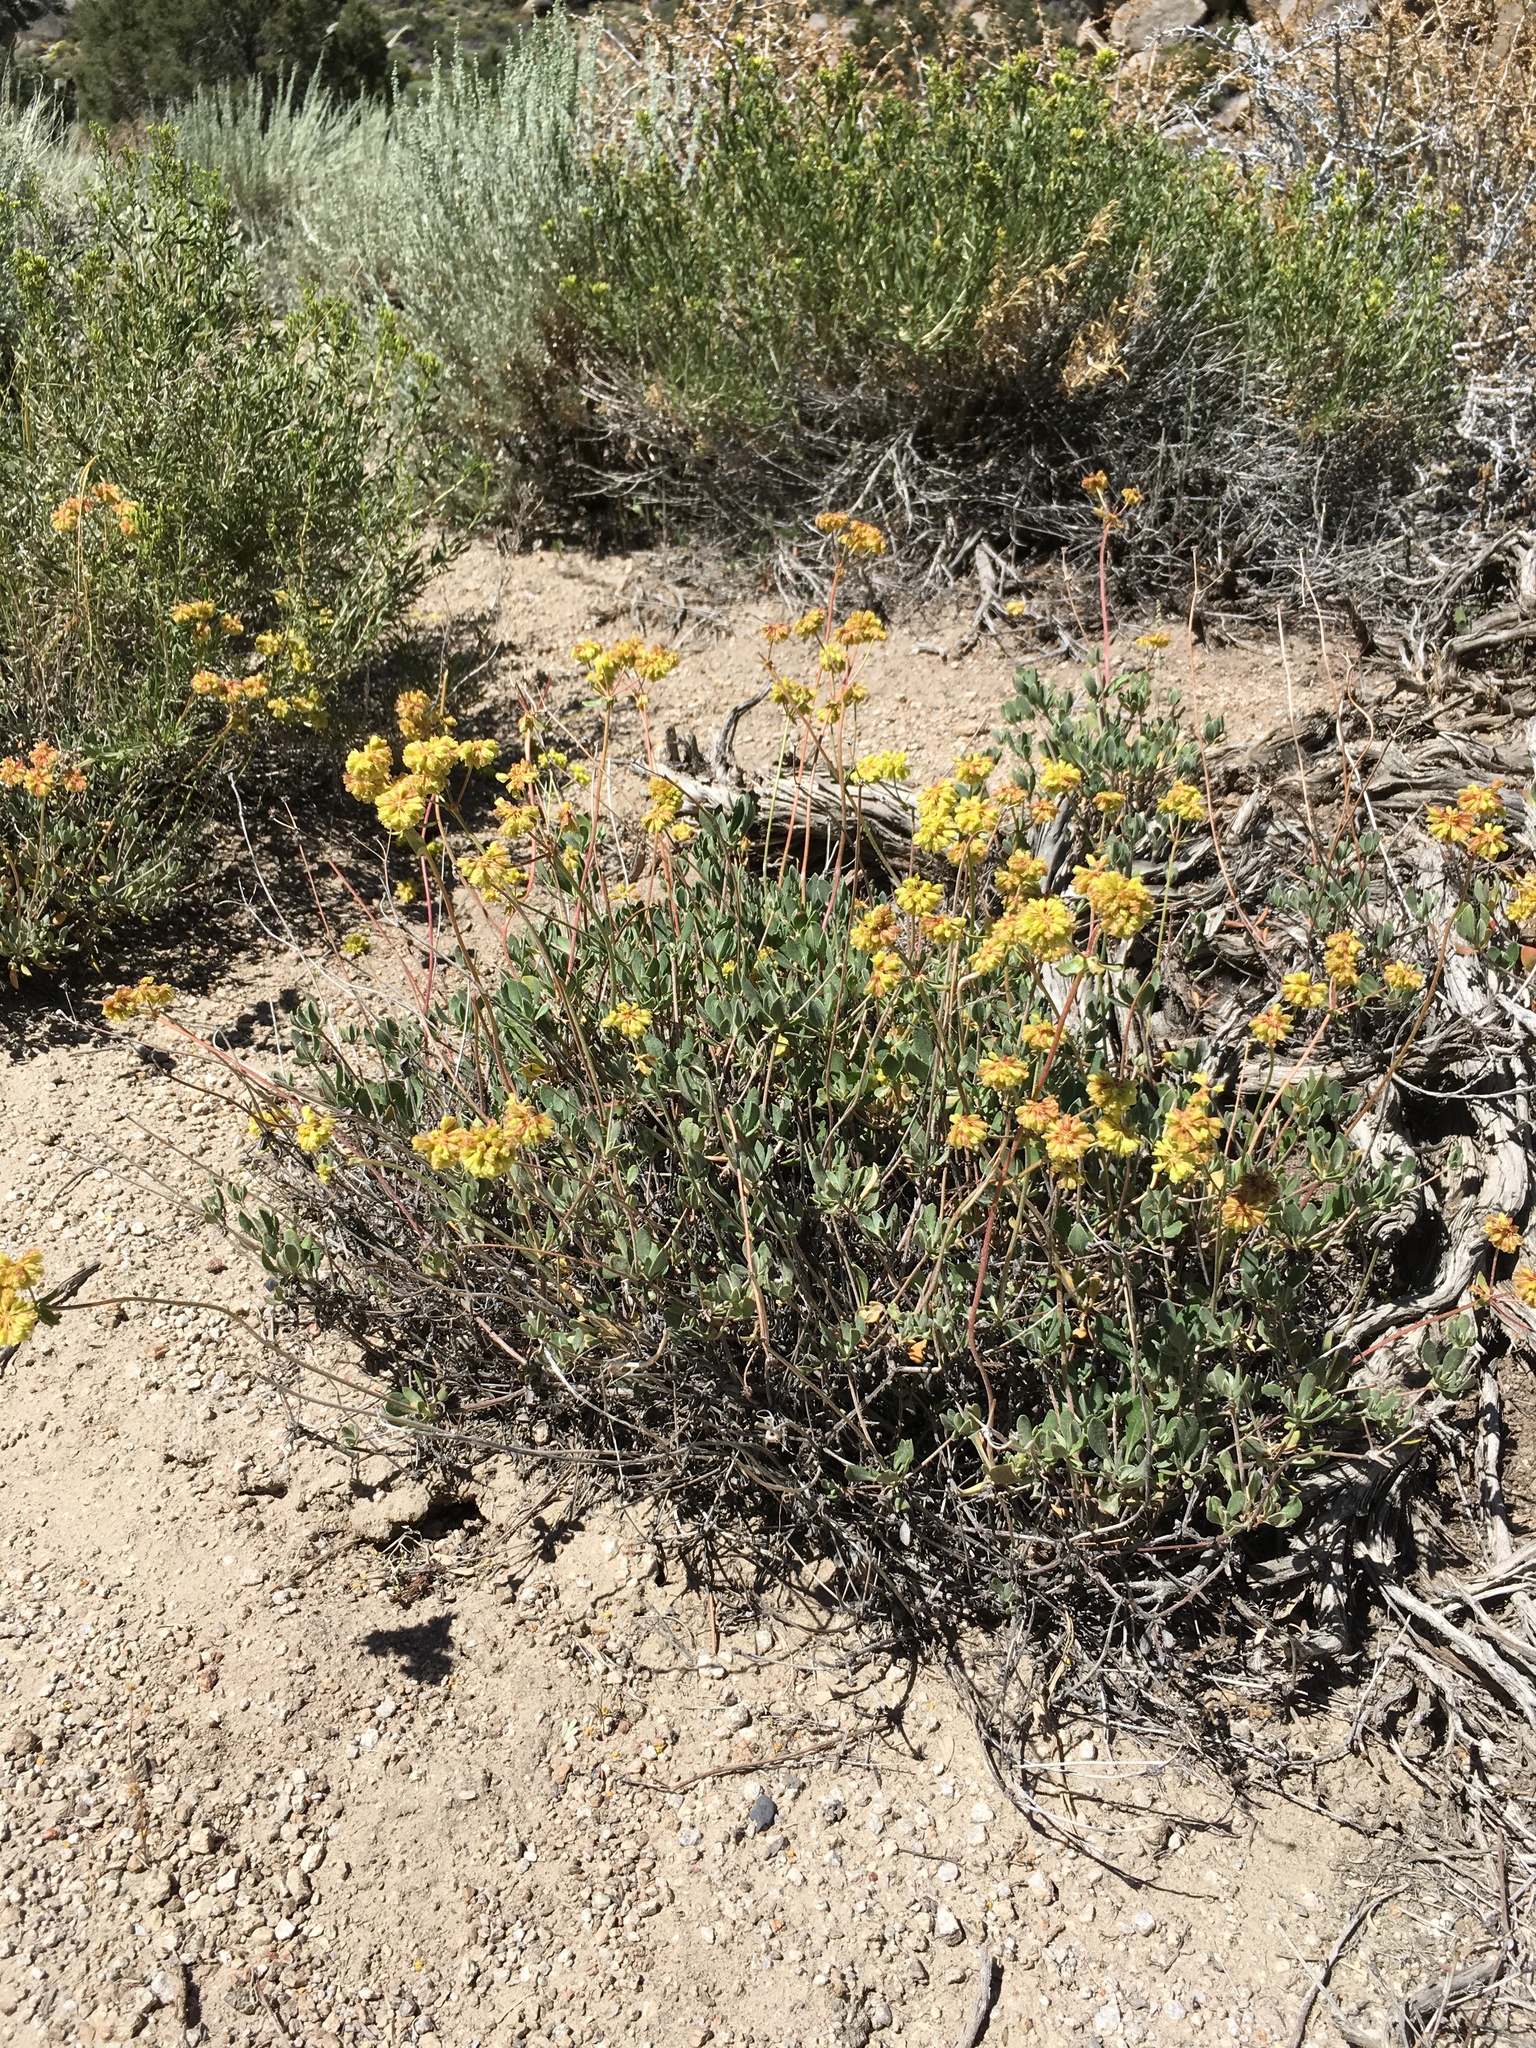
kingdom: Plantae
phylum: Tracheophyta
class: Magnoliopsida
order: Caryophyllales
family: Polygonaceae
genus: Eriogonum
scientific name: Eriogonum umbellatum
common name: Sulfur-buckwheat
